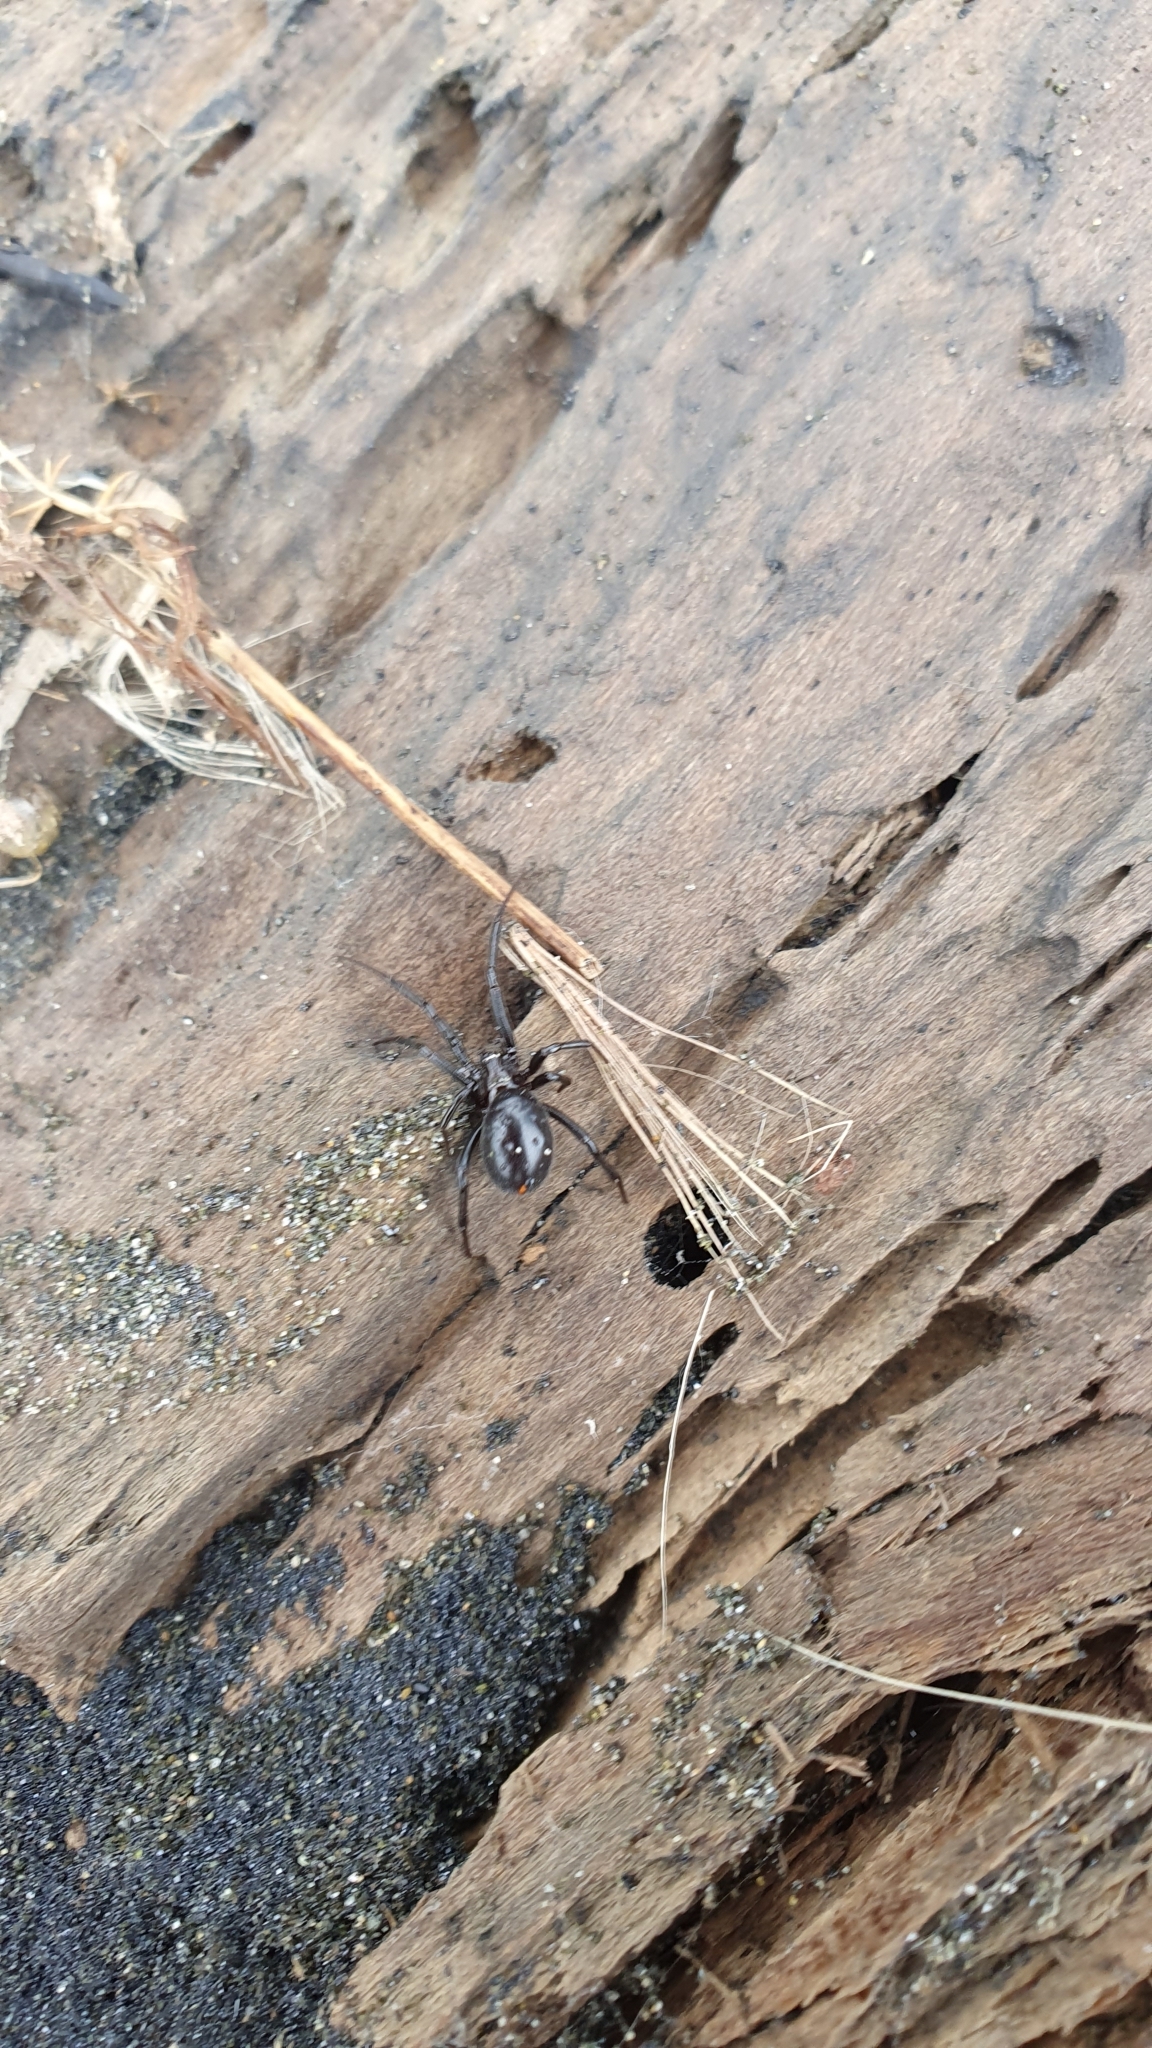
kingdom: Animalia
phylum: Arthropoda
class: Arachnida
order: Araneae
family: Theridiidae
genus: Steatoda
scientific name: Steatoda capensis
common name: Cobweb weaver
